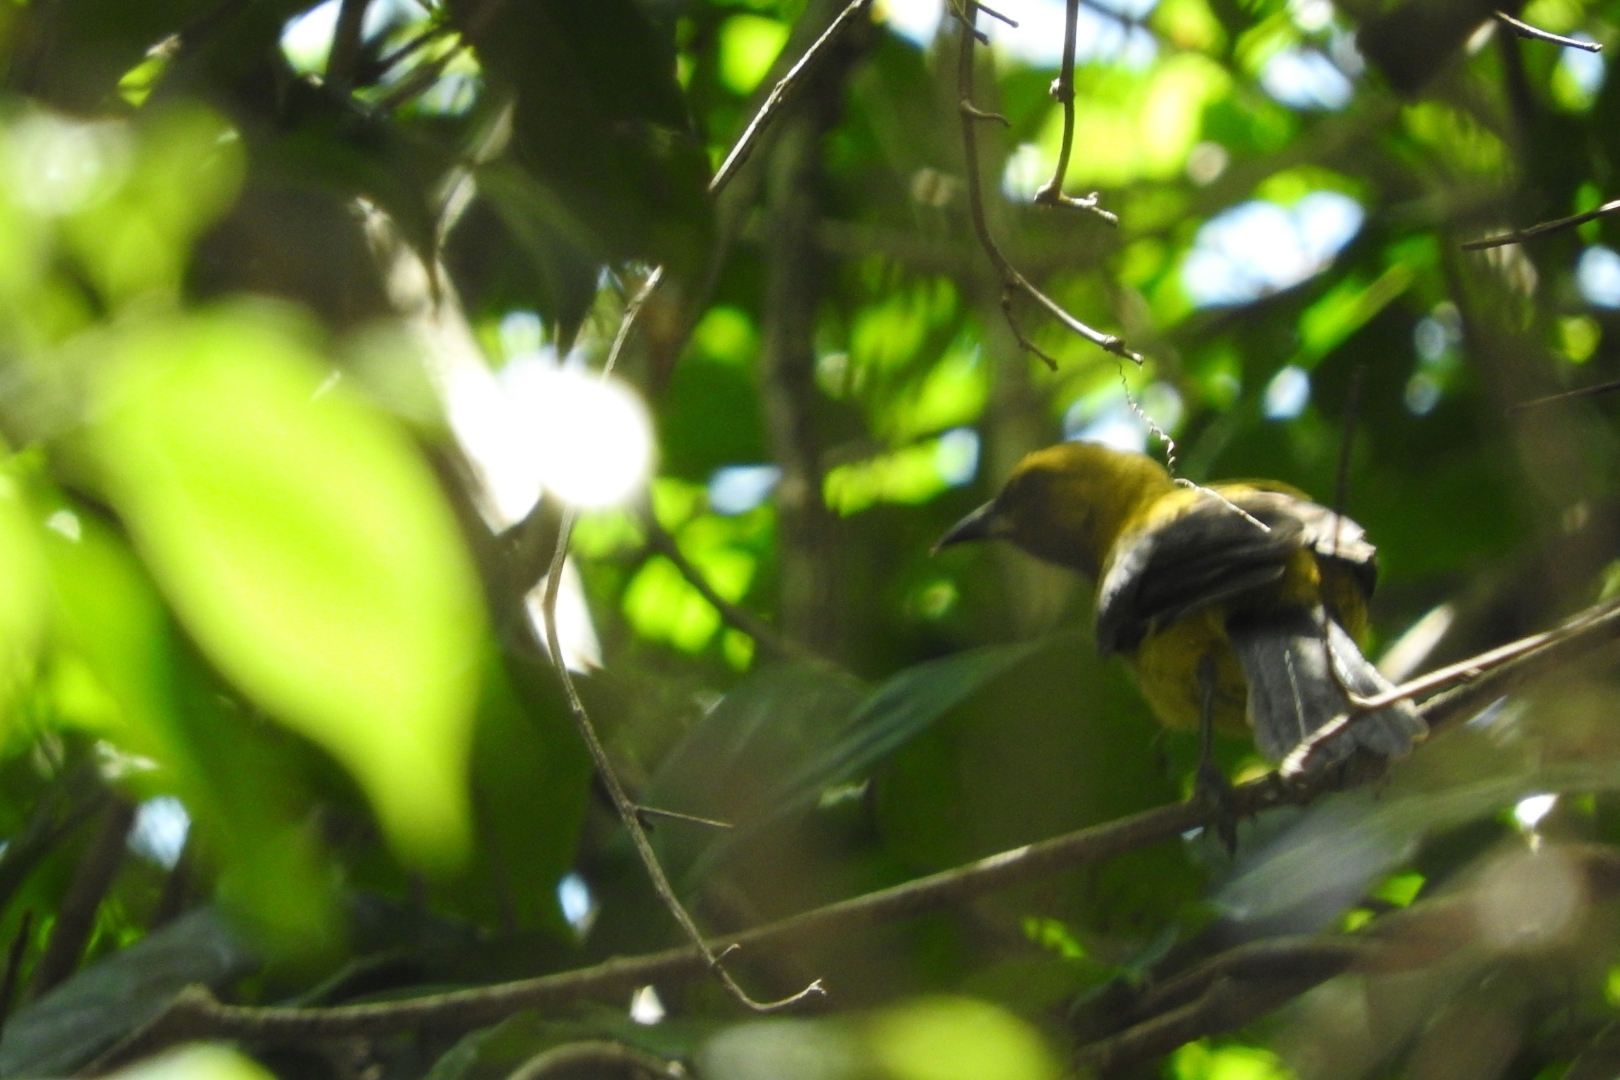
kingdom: Animalia
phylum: Chordata
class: Aves
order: Passeriformes
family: Icteridae
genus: Icterus
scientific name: Icterus chrysater
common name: Yellow-backed oriole
